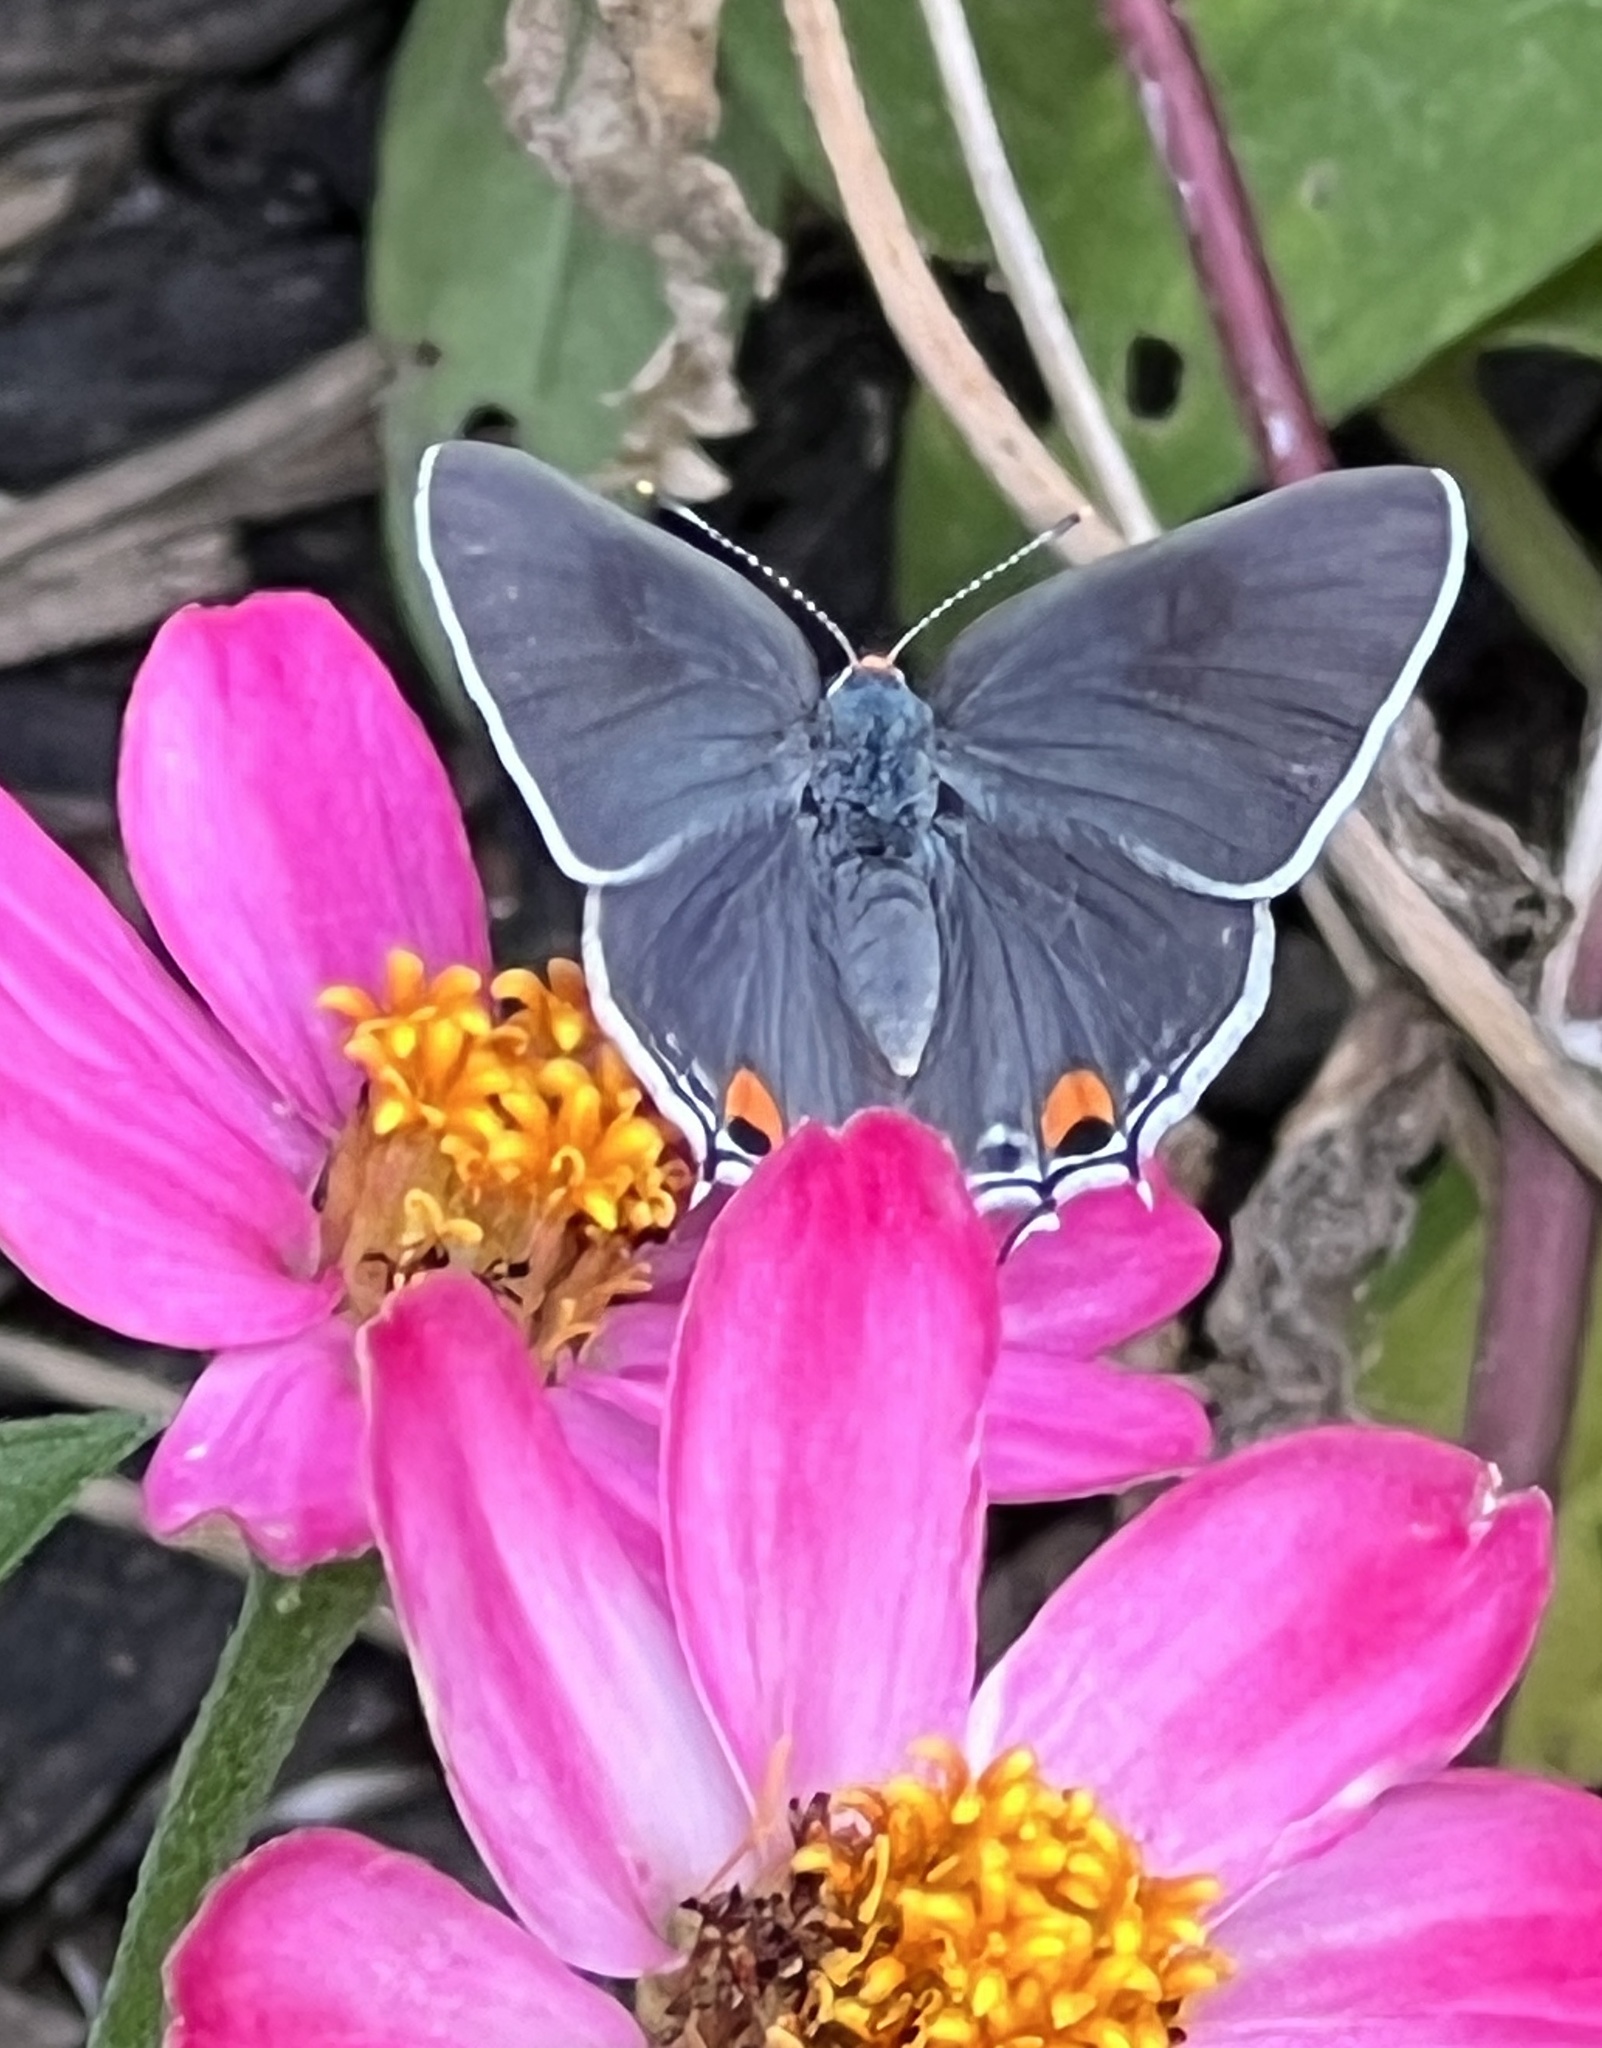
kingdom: Animalia
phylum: Arthropoda
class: Insecta
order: Lepidoptera
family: Lycaenidae
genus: Strymon
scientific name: Strymon melinus
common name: Gray hairstreak
